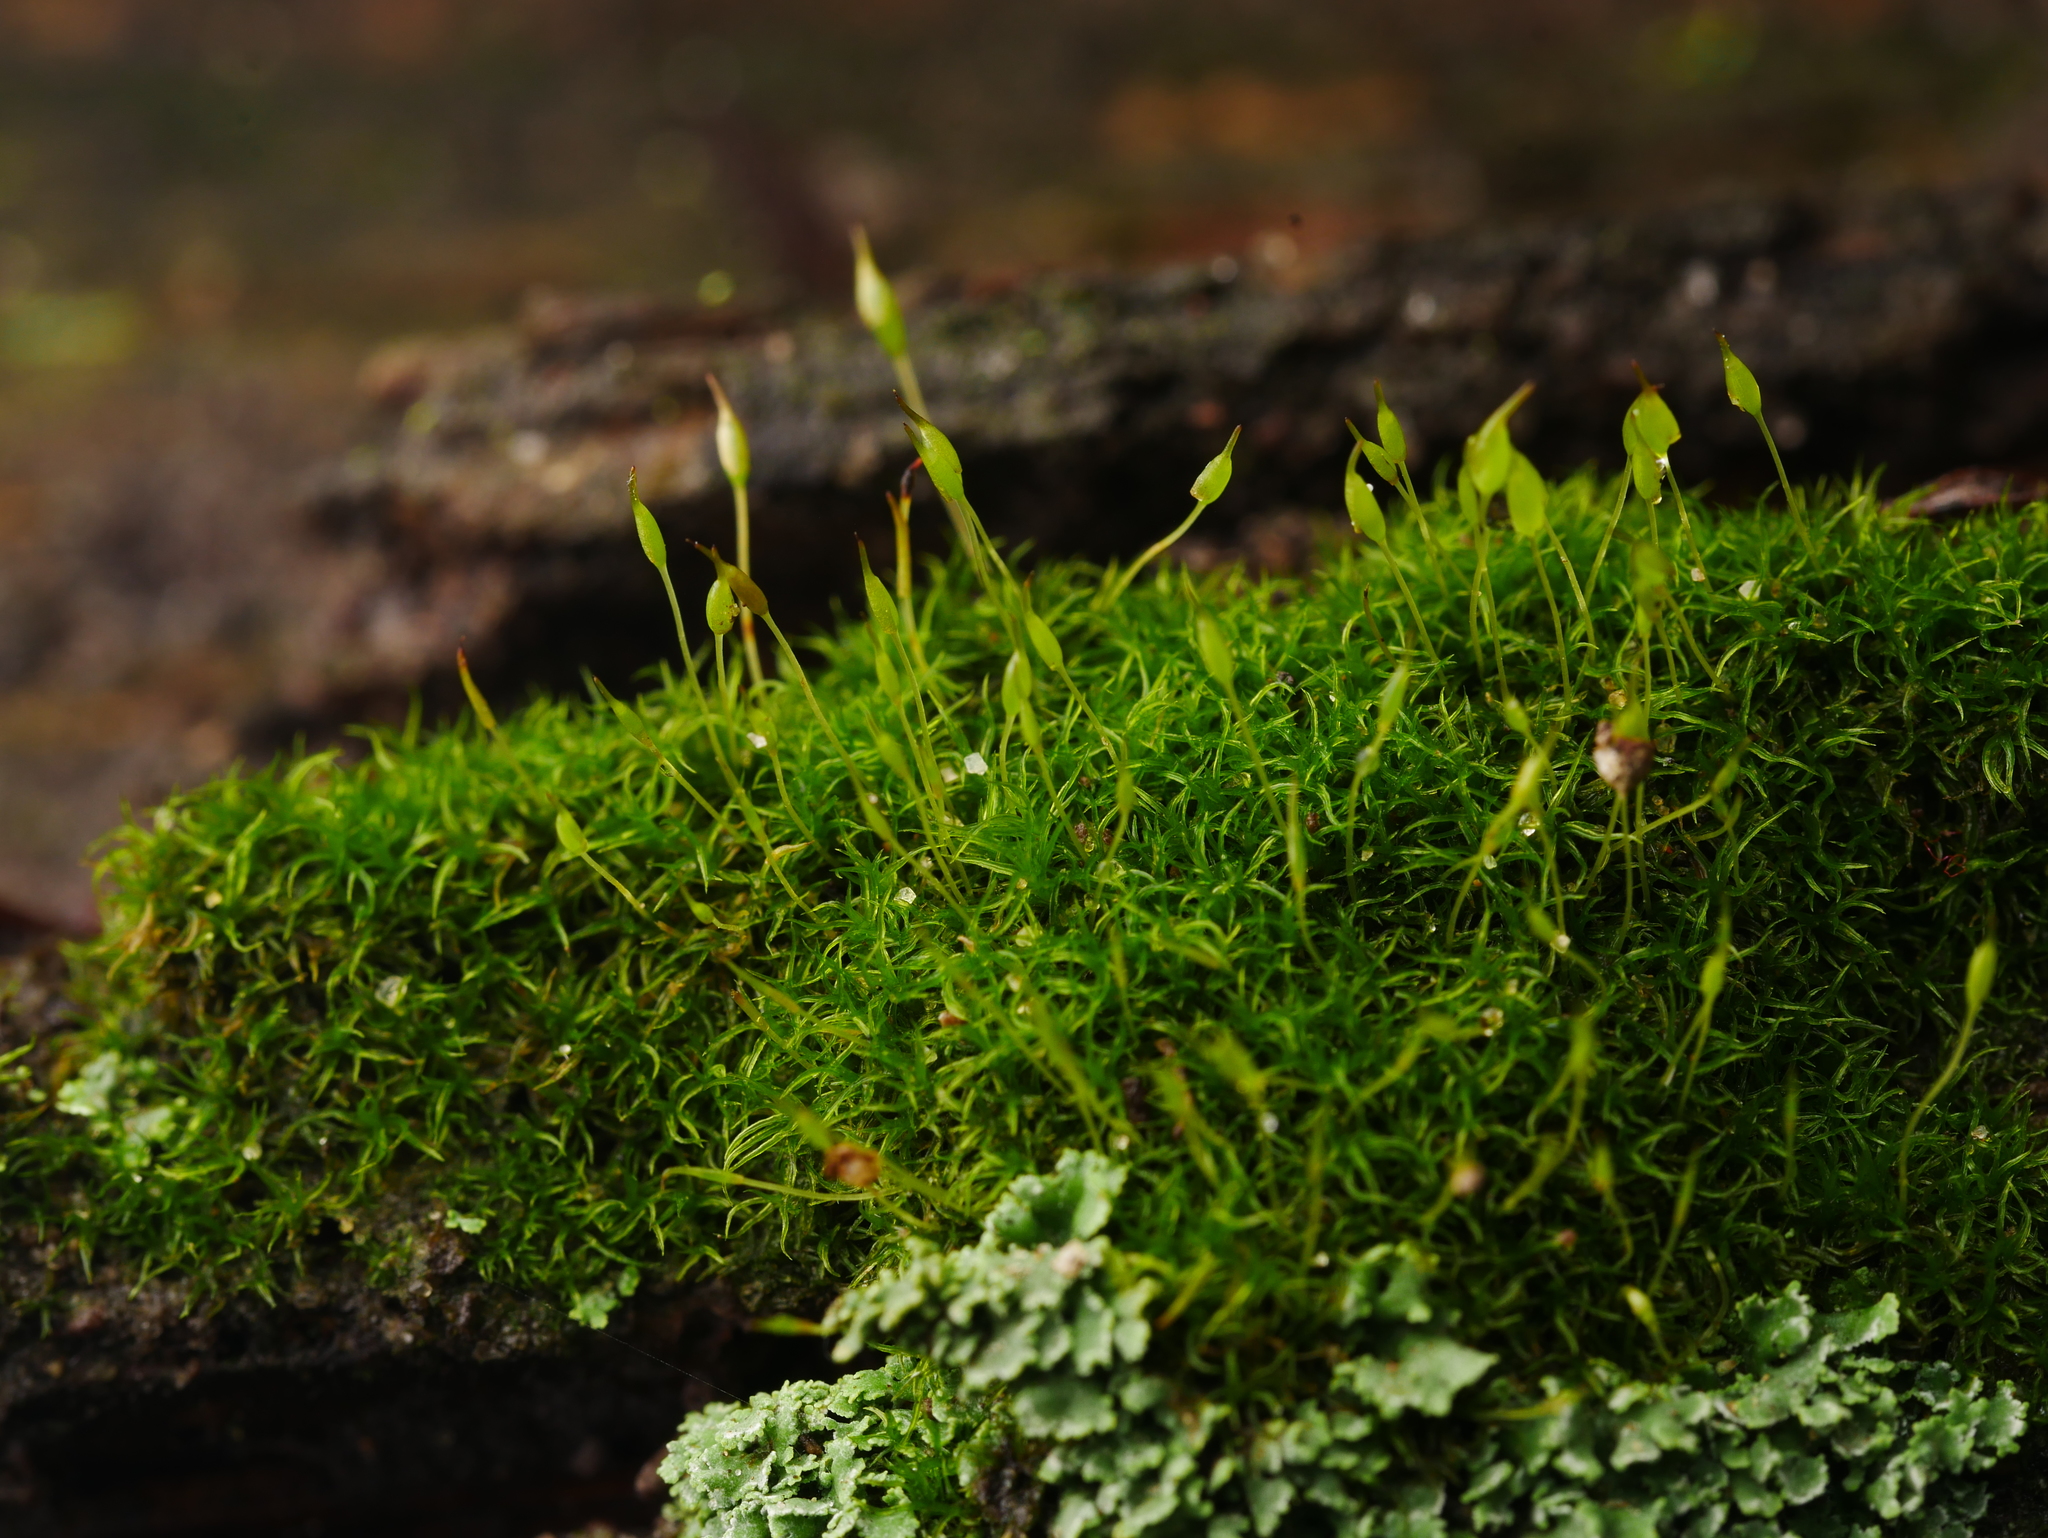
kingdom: Plantae
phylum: Bryophyta
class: Bryopsida
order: Dicranales
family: Rhabdoweisiaceae
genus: Dicranoweisia
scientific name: Dicranoweisia cirrata
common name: Common pincushion
